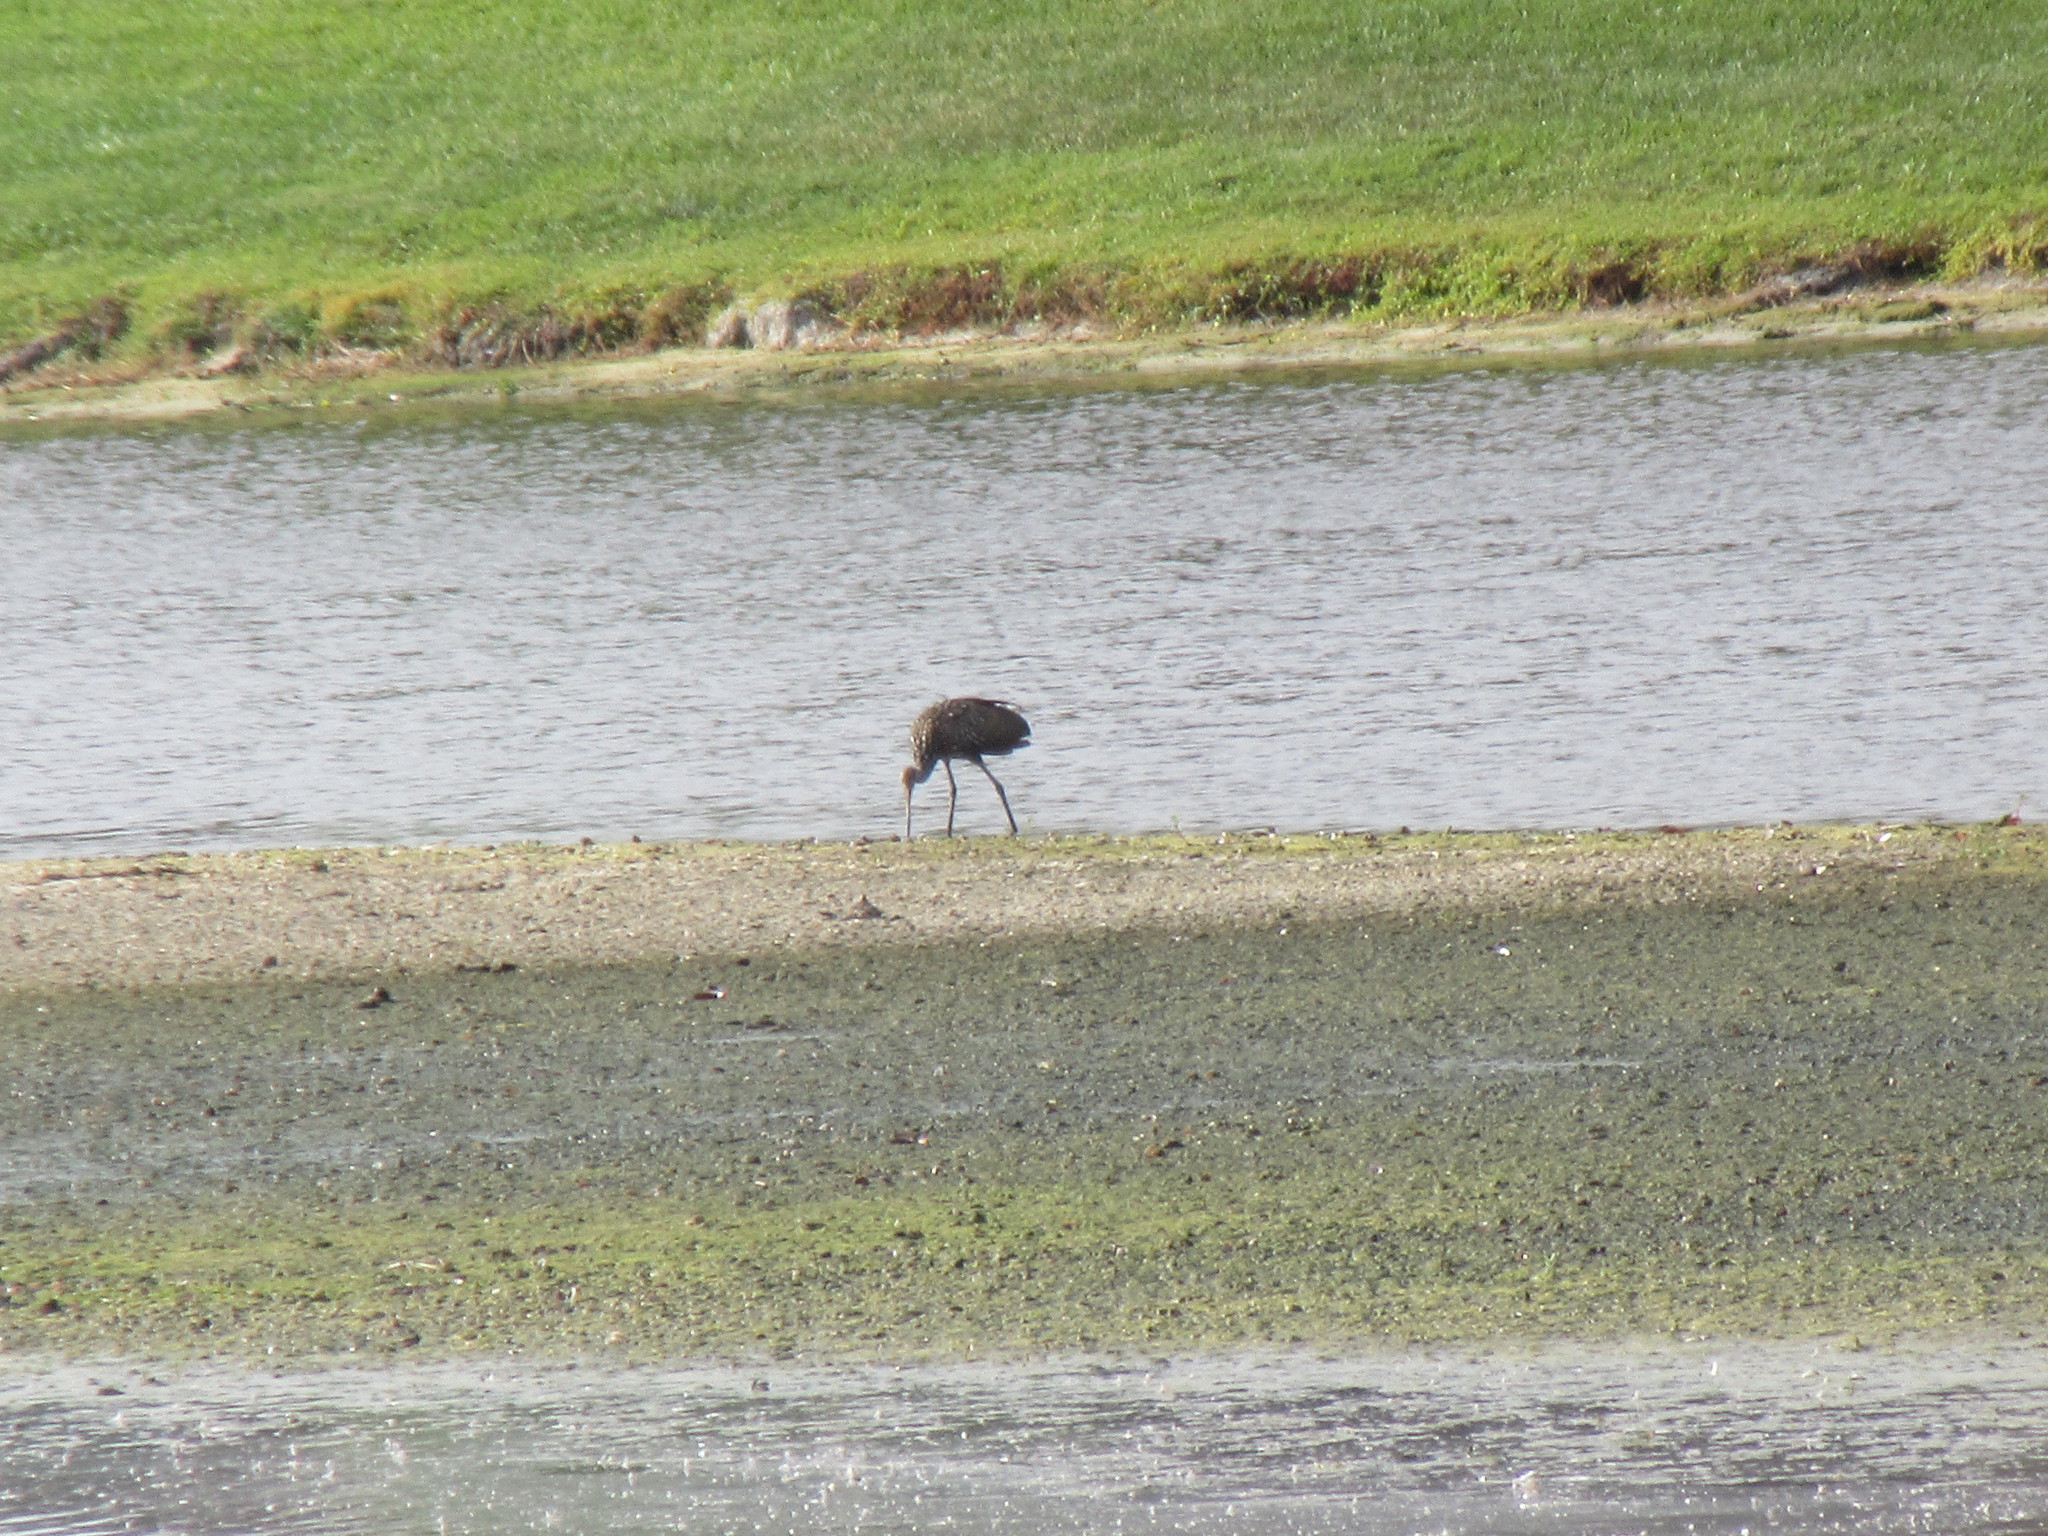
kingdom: Animalia
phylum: Chordata
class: Aves
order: Gruiformes
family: Aramidae
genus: Aramus
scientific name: Aramus guarauna
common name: Limpkin
